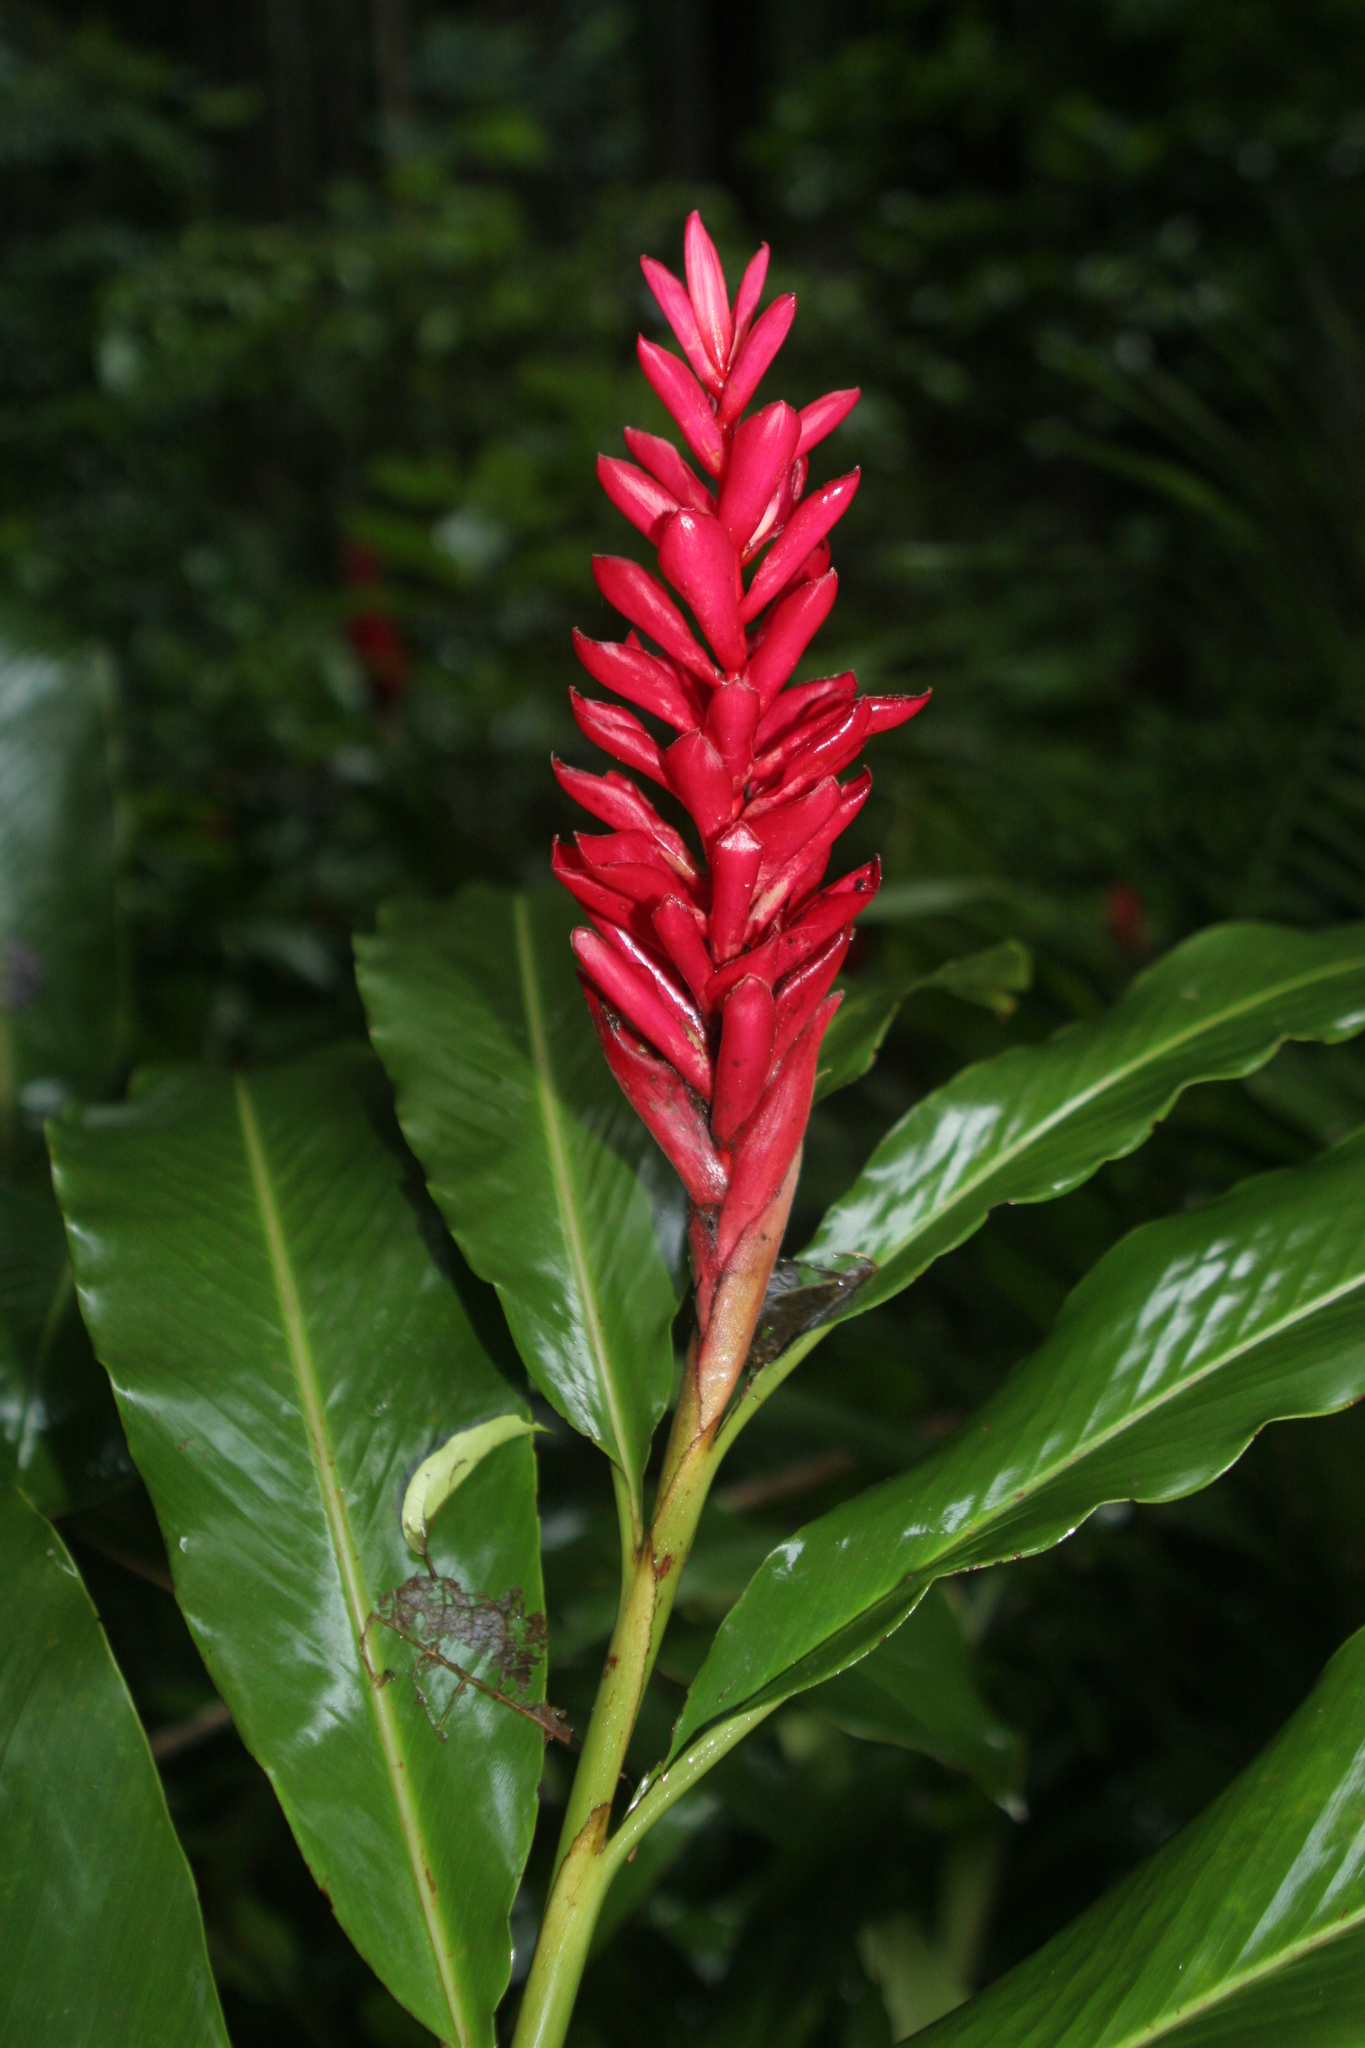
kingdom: Plantae
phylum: Tracheophyta
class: Liliopsida
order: Zingiberales
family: Zingiberaceae
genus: Alpinia
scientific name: Alpinia purpurata
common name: Red ginger
